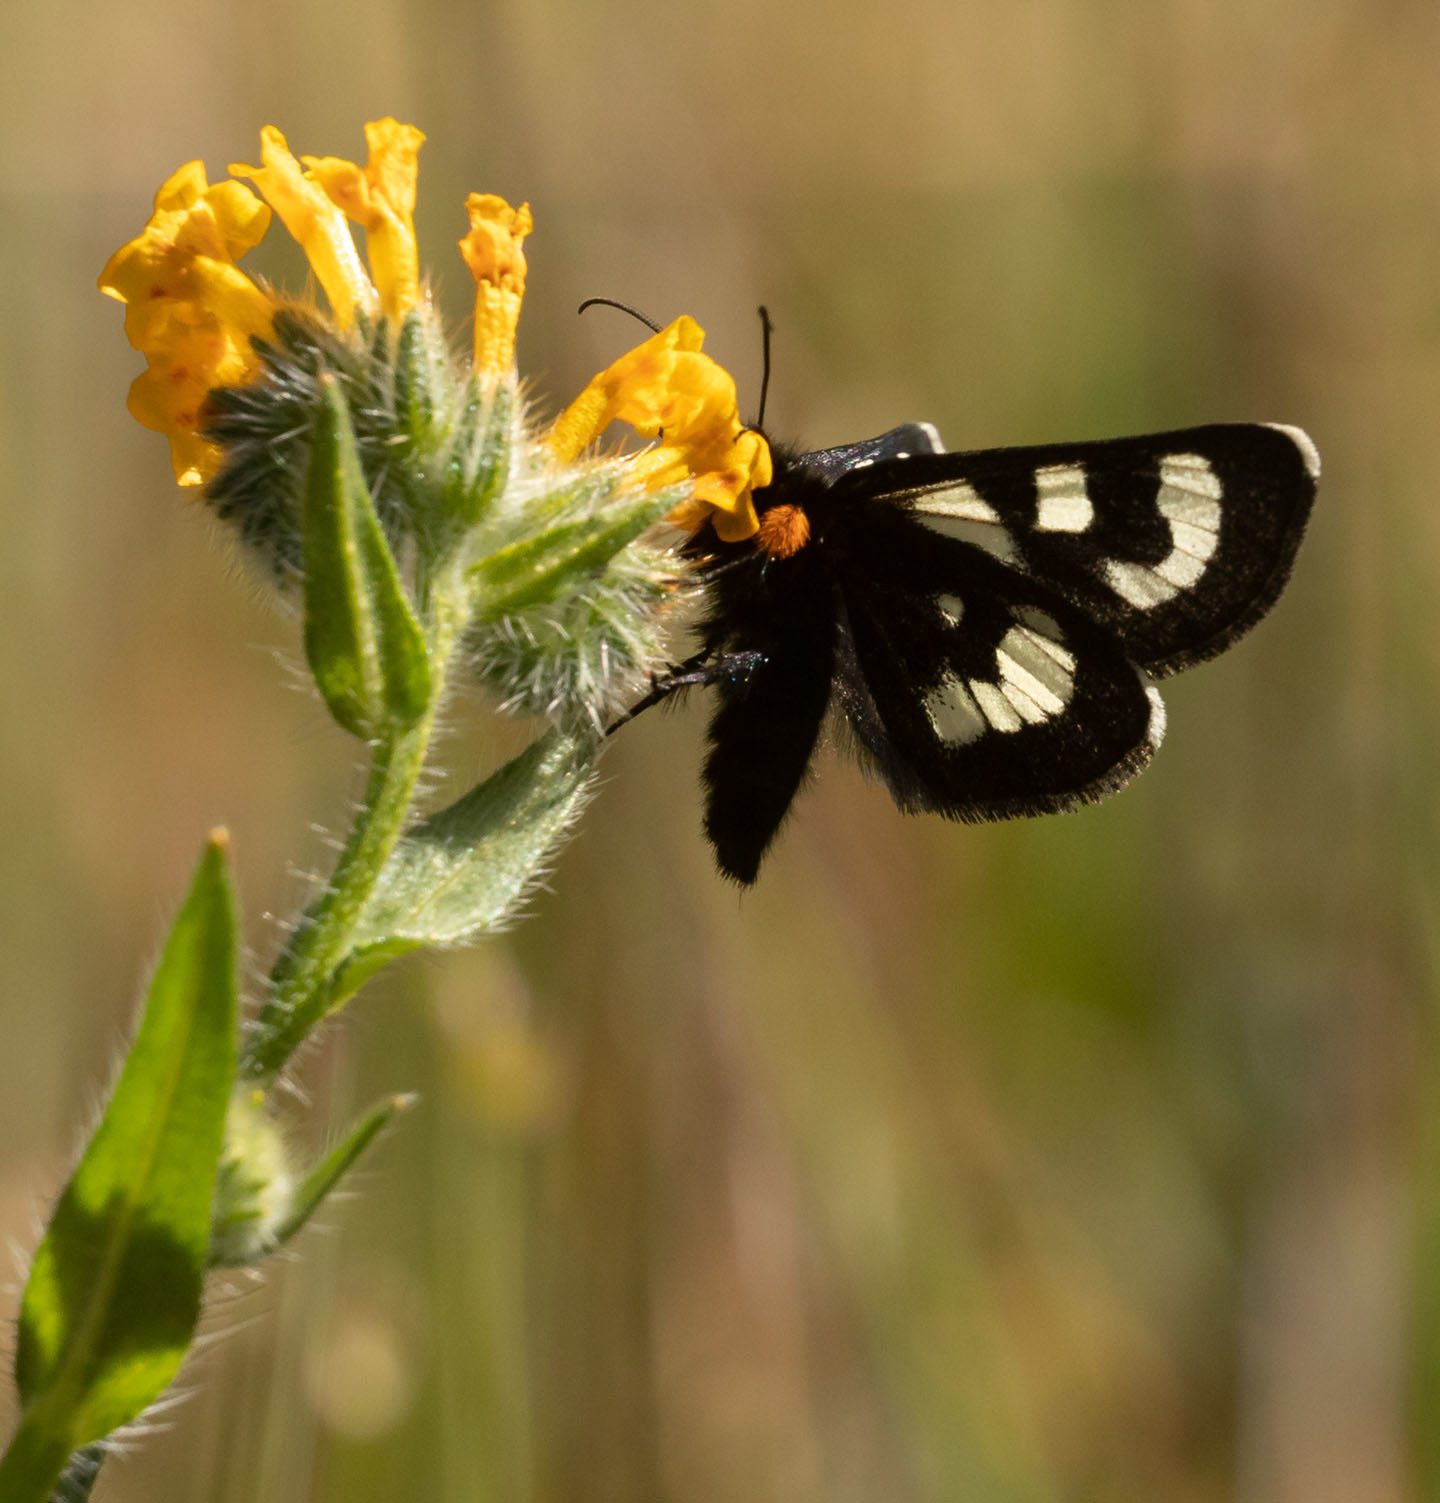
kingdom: Animalia
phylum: Arthropoda
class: Insecta
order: Lepidoptera
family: Noctuidae
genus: Alypia
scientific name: Alypia mariposa
